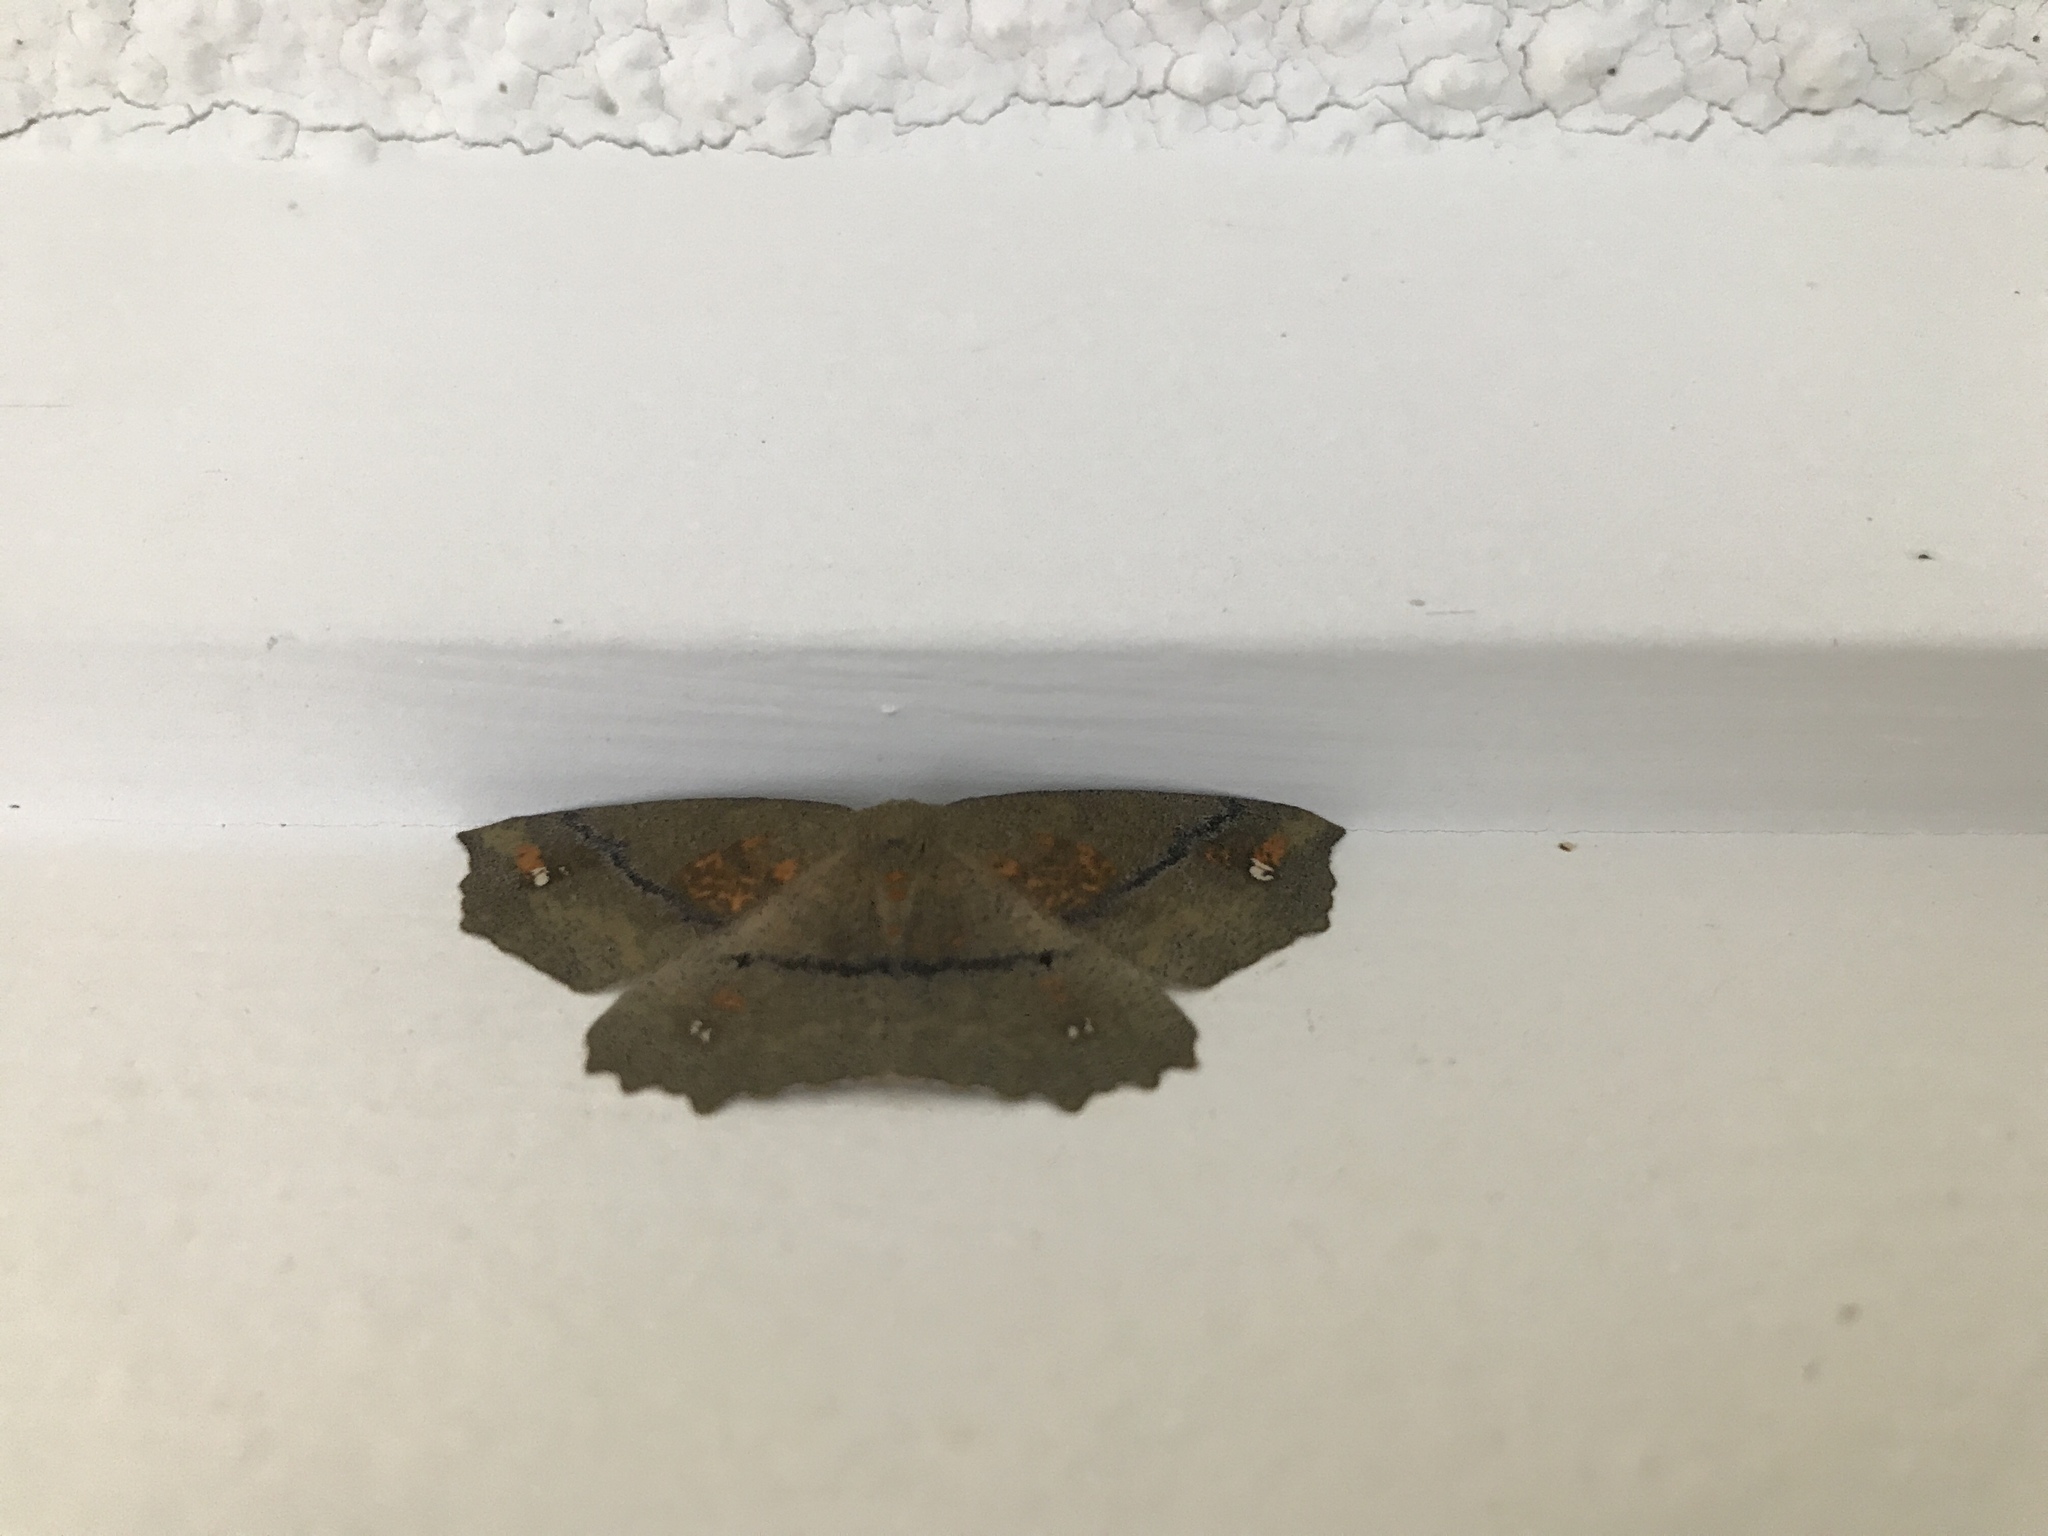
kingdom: Animalia
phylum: Arthropoda
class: Insecta
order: Lepidoptera
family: Geometridae
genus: Xyridacma
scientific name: Xyridacma ustaria
